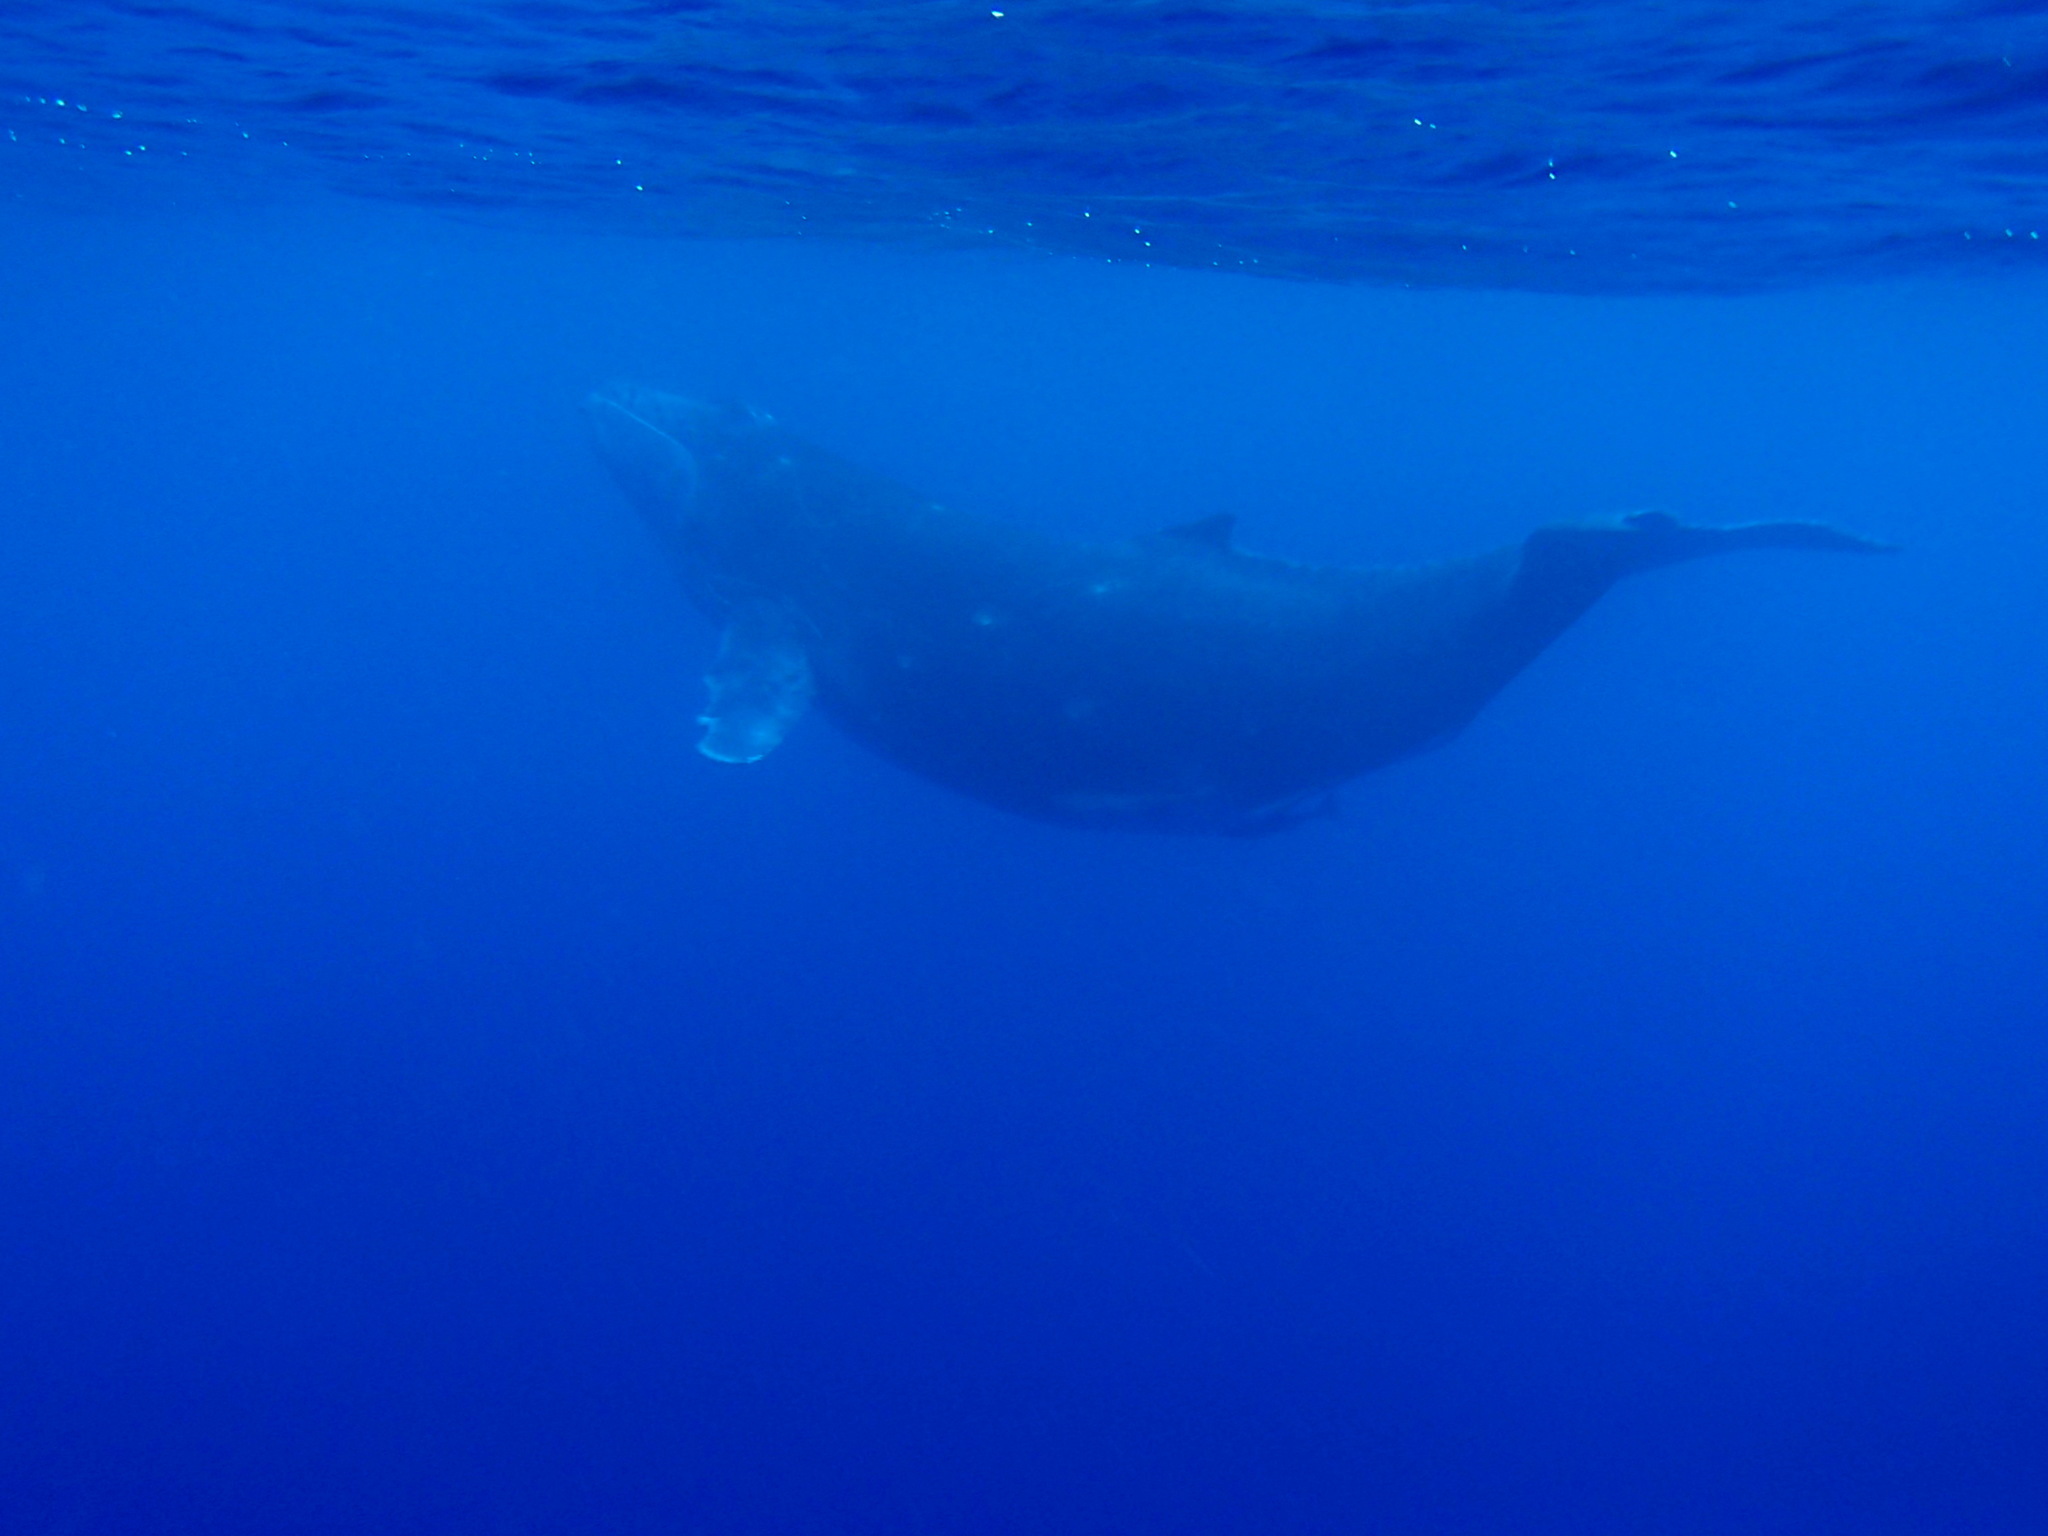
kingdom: Animalia
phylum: Chordata
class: Mammalia
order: Cetacea
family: Balaenopteridae
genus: Megaptera
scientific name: Megaptera novaeangliae
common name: Humpback whale
